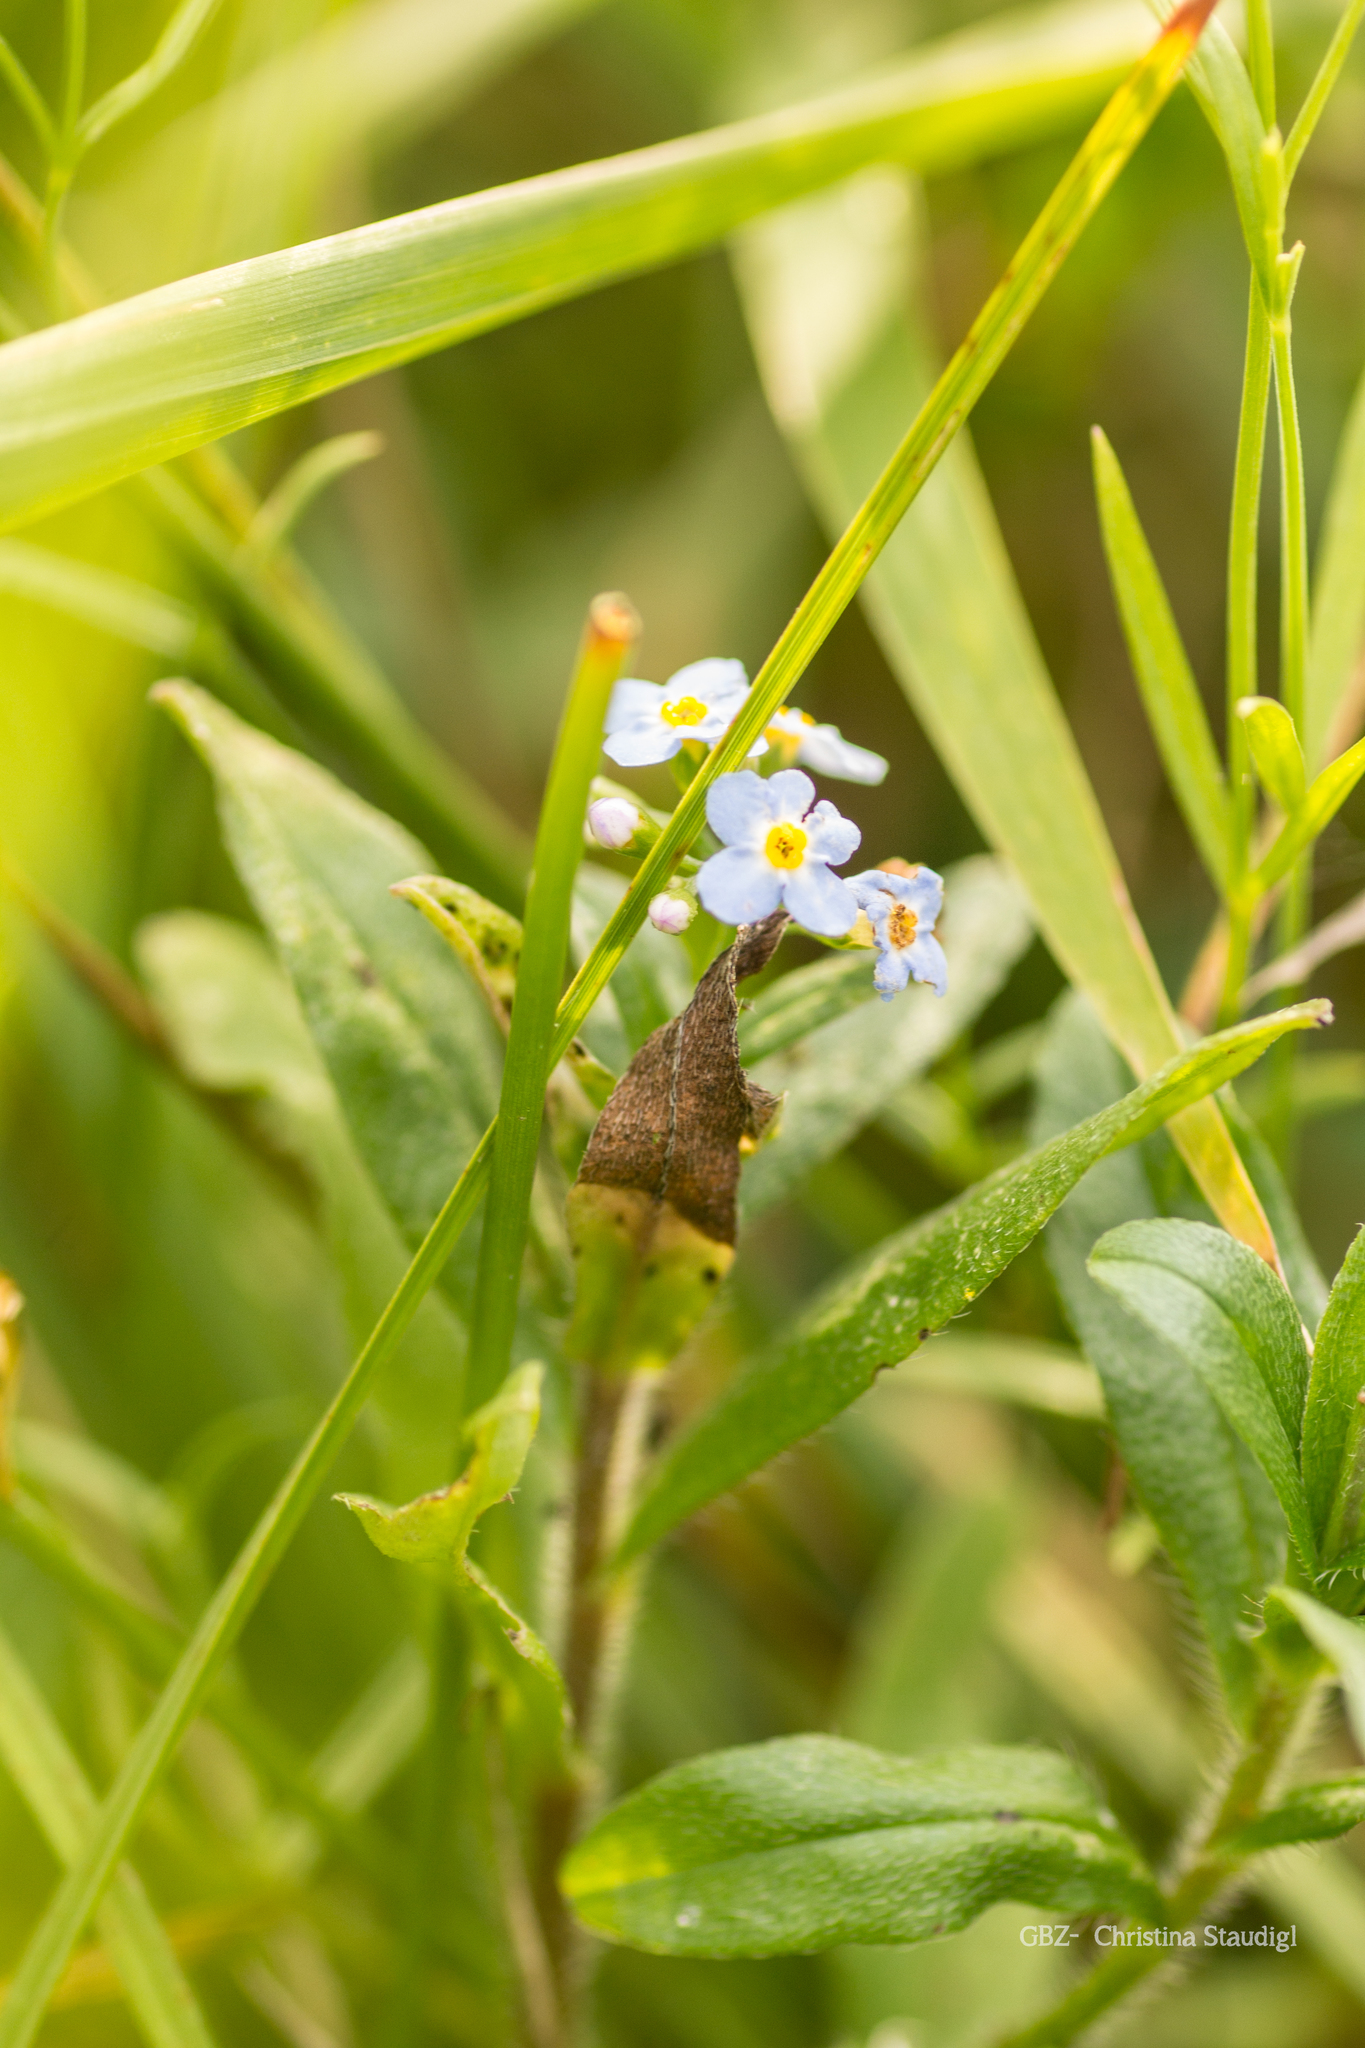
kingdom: Plantae
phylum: Tracheophyta
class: Magnoliopsida
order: Boraginales
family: Boraginaceae
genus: Myosotis
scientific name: Myosotis scorpioides
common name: Water forget-me-not
